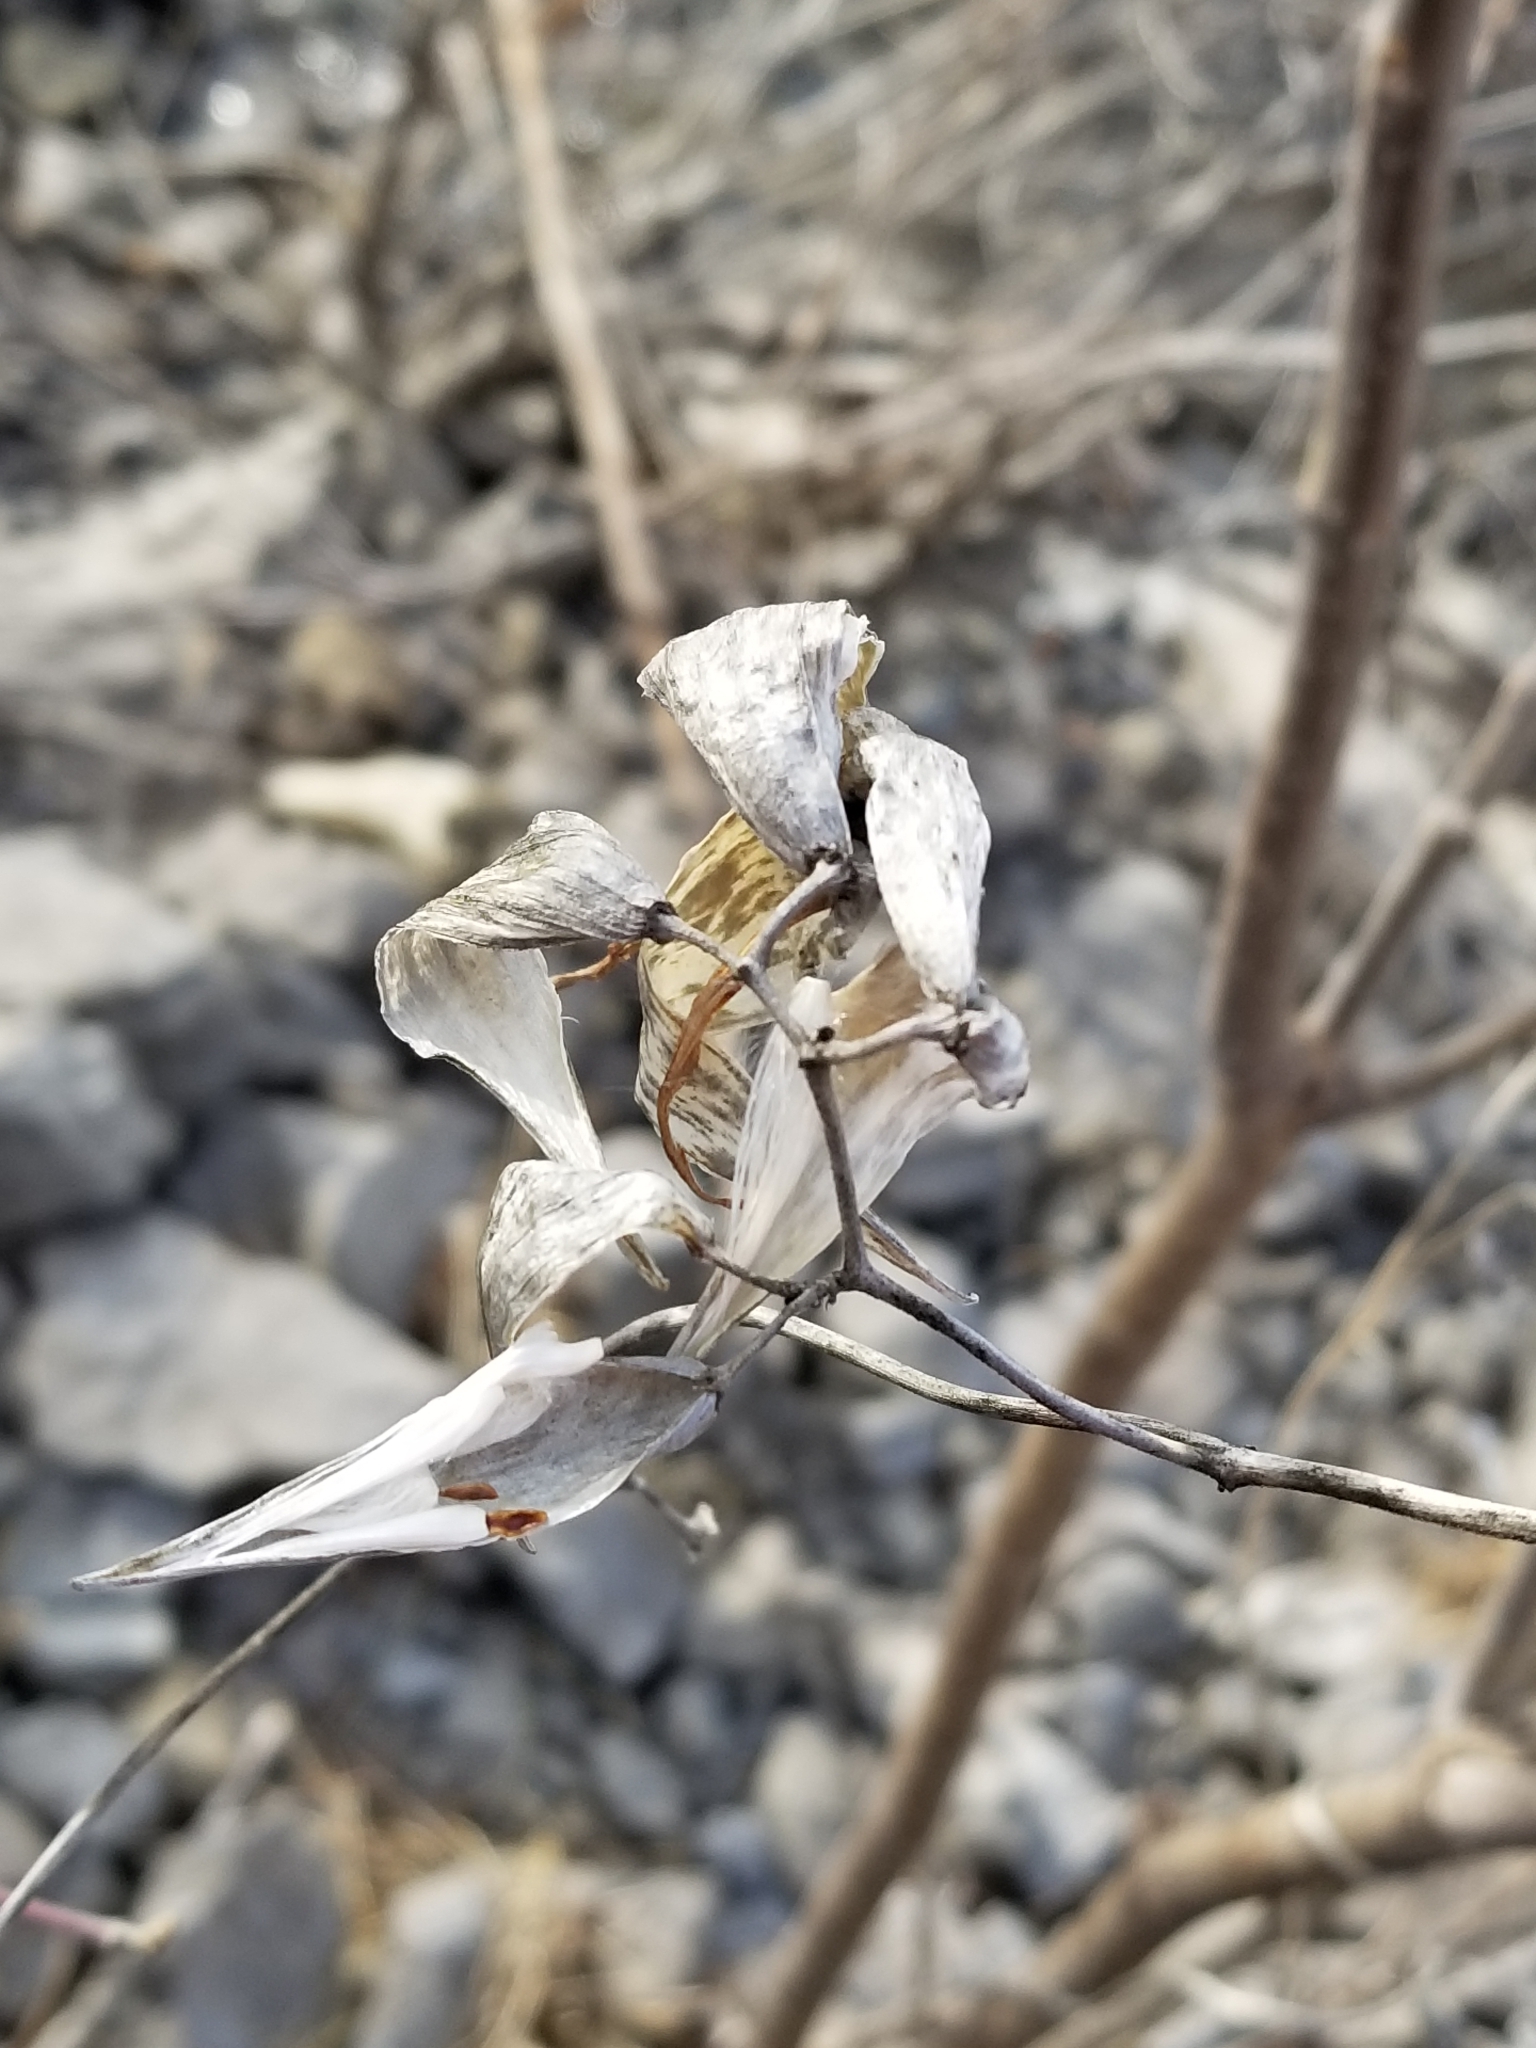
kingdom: Plantae
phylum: Tracheophyta
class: Magnoliopsida
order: Gentianales
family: Apocynaceae
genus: Vincetoxicum
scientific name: Vincetoxicum rossicum
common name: Dog-strangling vine
